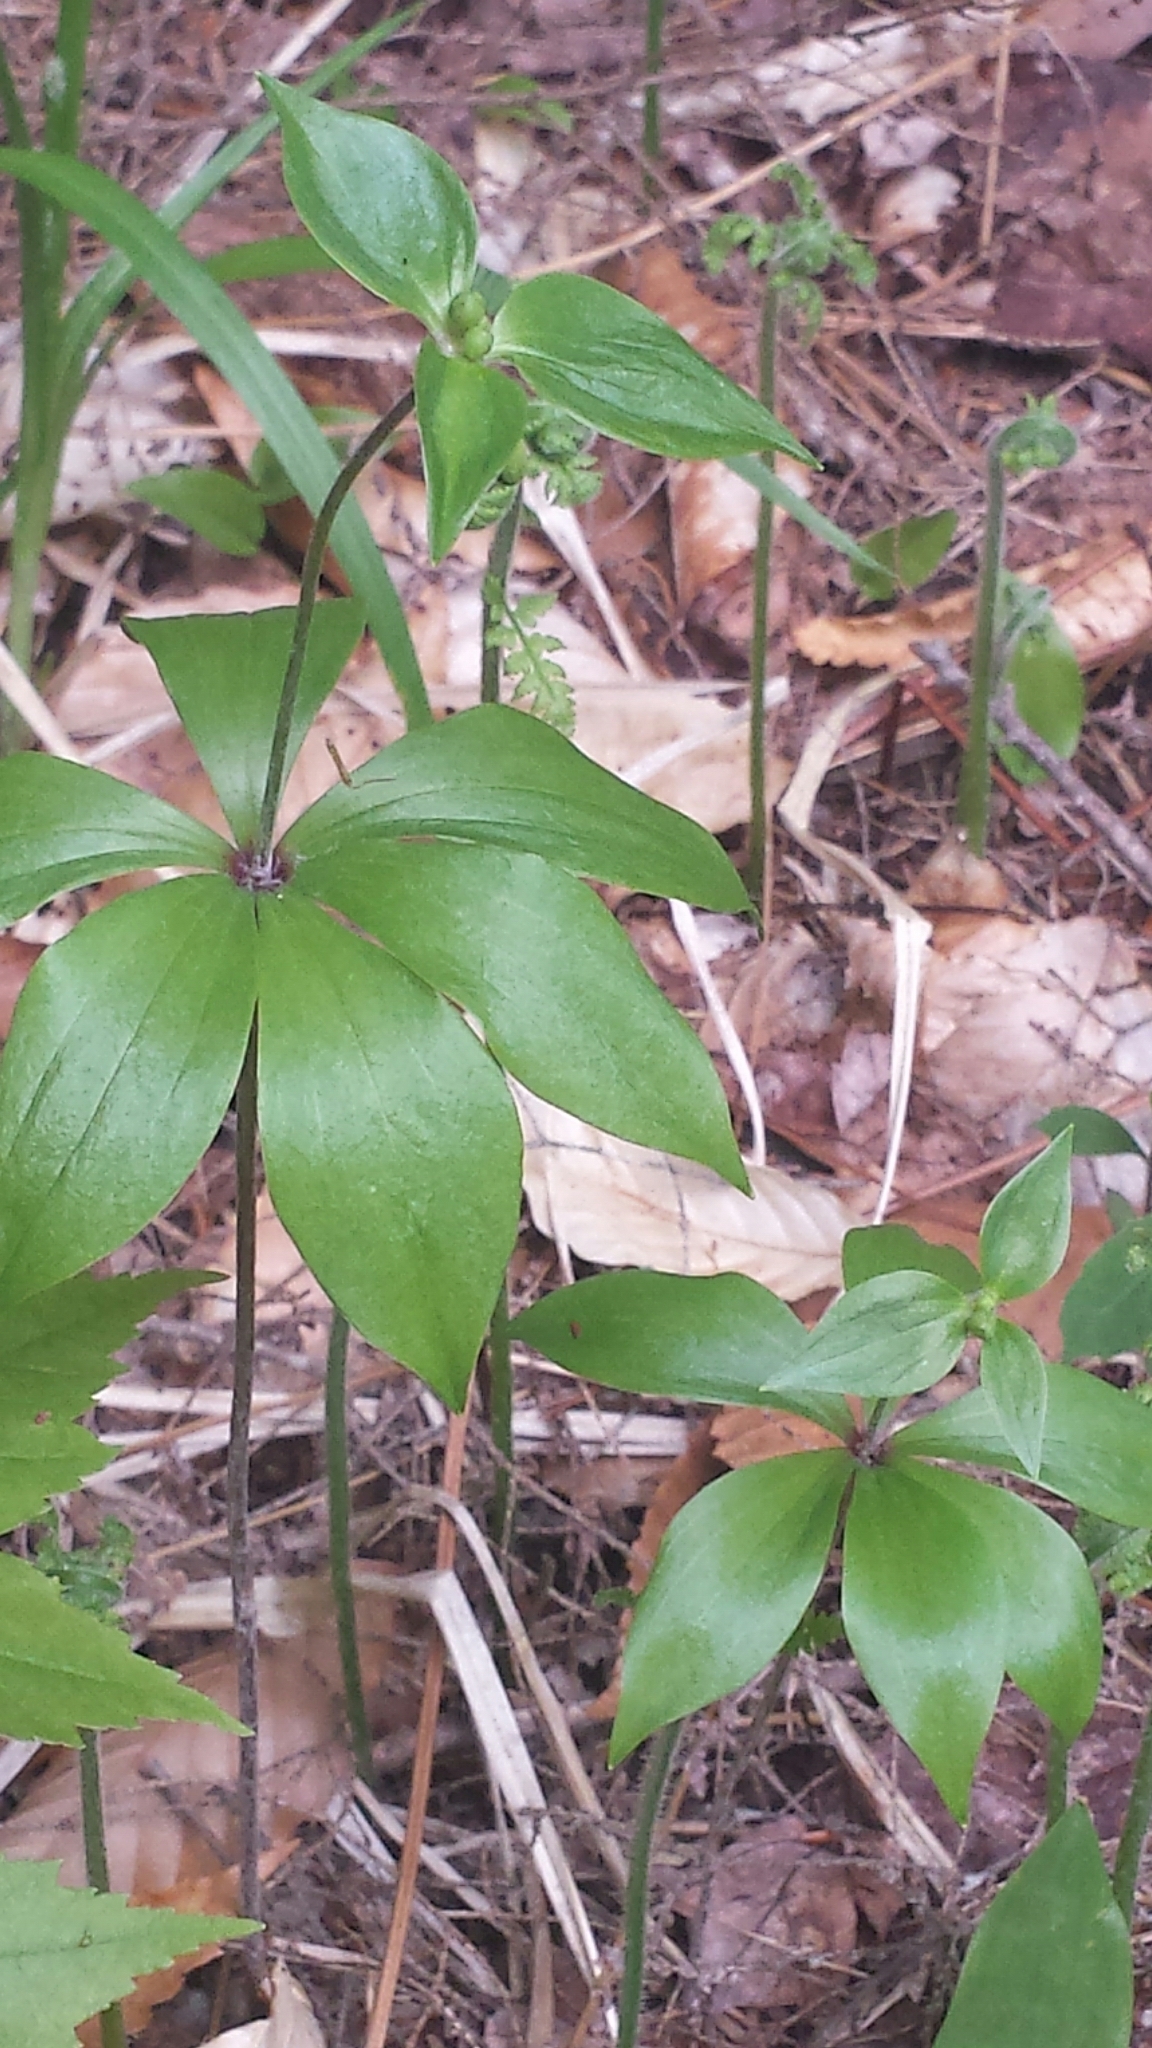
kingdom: Plantae
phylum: Tracheophyta
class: Liliopsida
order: Liliales
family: Liliaceae
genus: Medeola
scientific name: Medeola virginiana
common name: Indian cucumber-root
